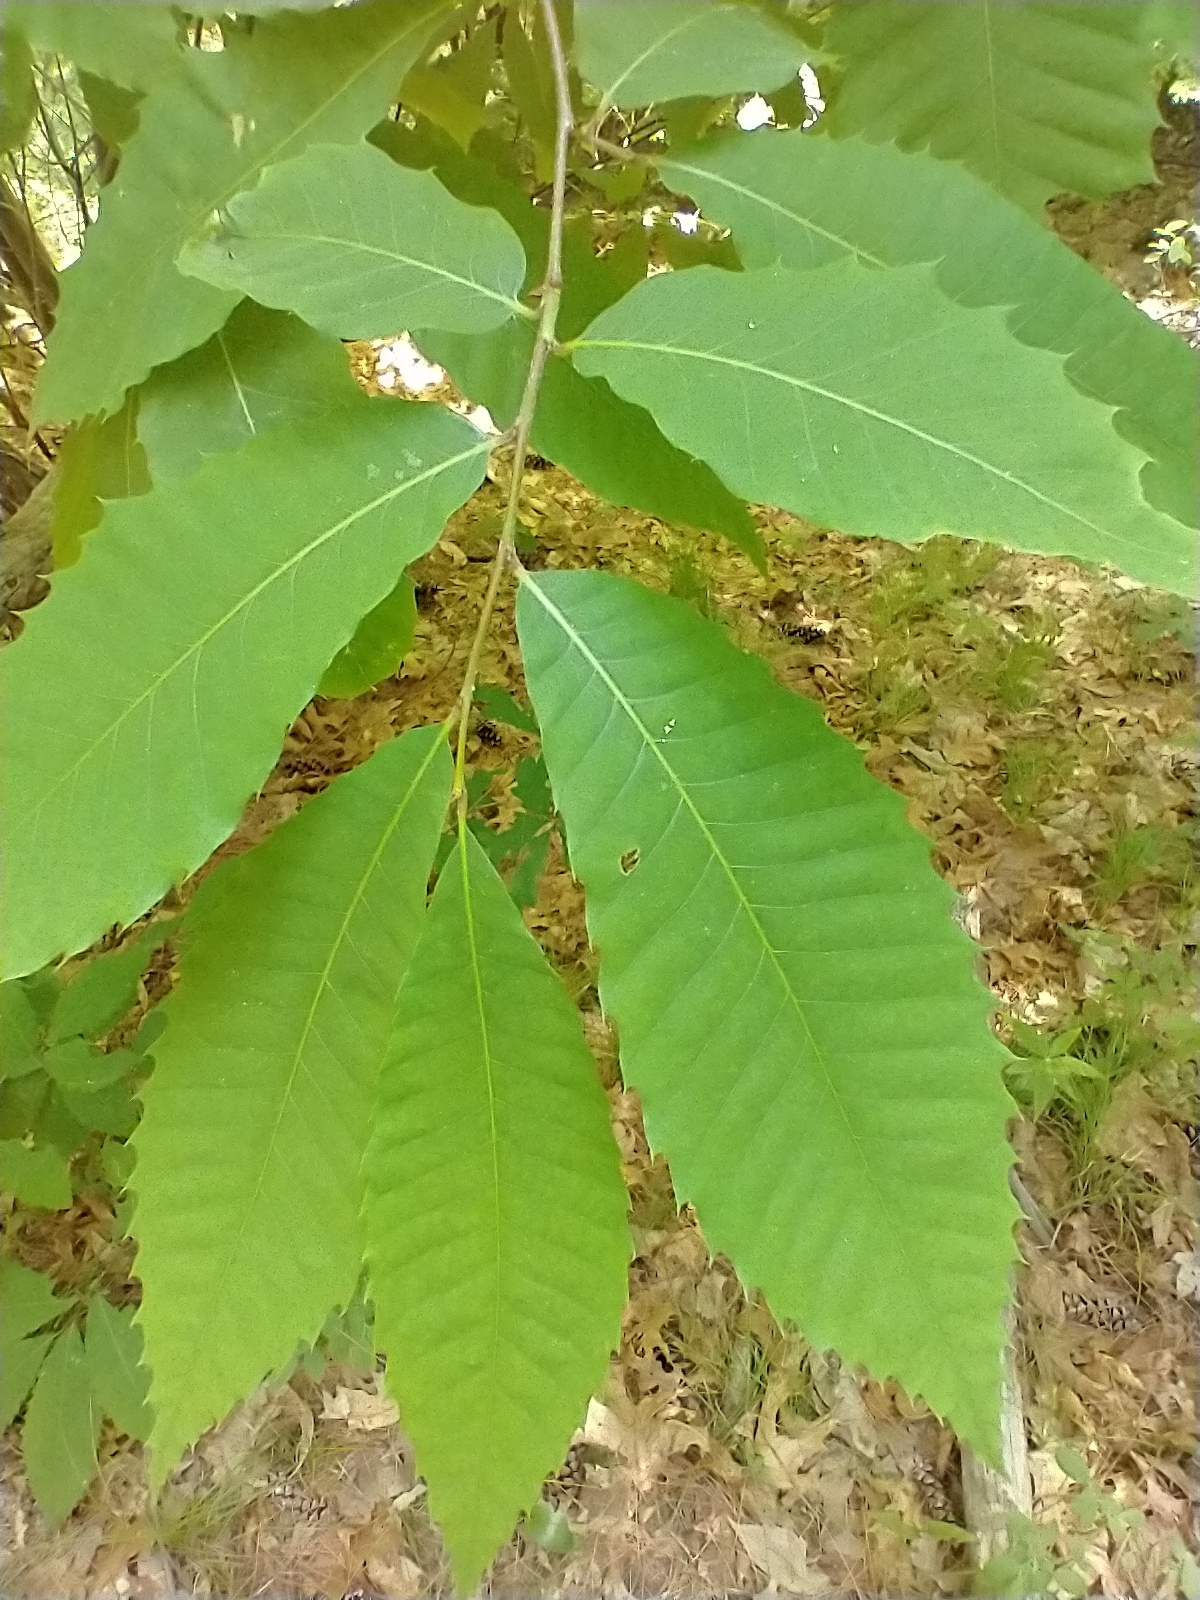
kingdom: Plantae
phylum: Tracheophyta
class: Magnoliopsida
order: Fagales
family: Fagaceae
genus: Castanea
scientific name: Castanea dentata
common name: American chestnut
